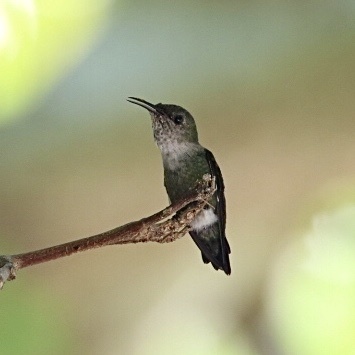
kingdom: Animalia
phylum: Chordata
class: Aves
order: Apodiformes
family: Trochilidae
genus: Mellisuga
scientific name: Mellisuga minima
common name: Vervain hummingbird
